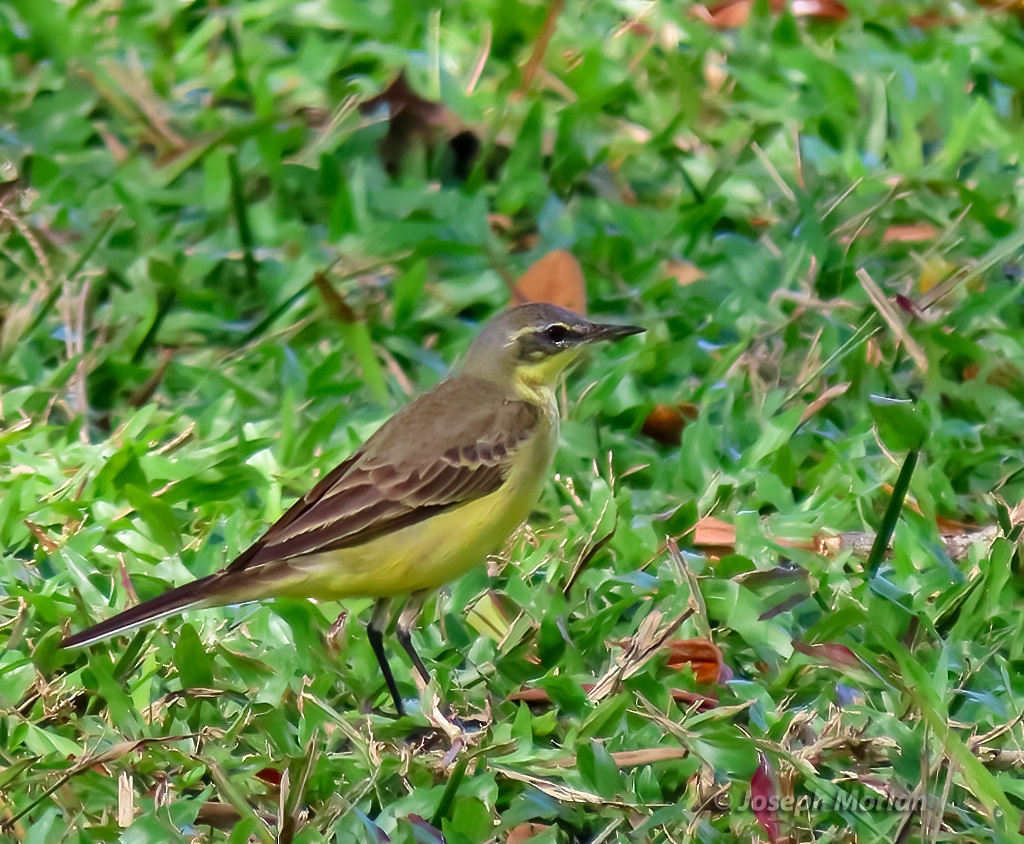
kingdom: Animalia
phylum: Chordata
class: Aves
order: Passeriformes
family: Motacillidae
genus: Motacilla
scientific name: Motacilla tschutschensis
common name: Eastern yellow wagtail
